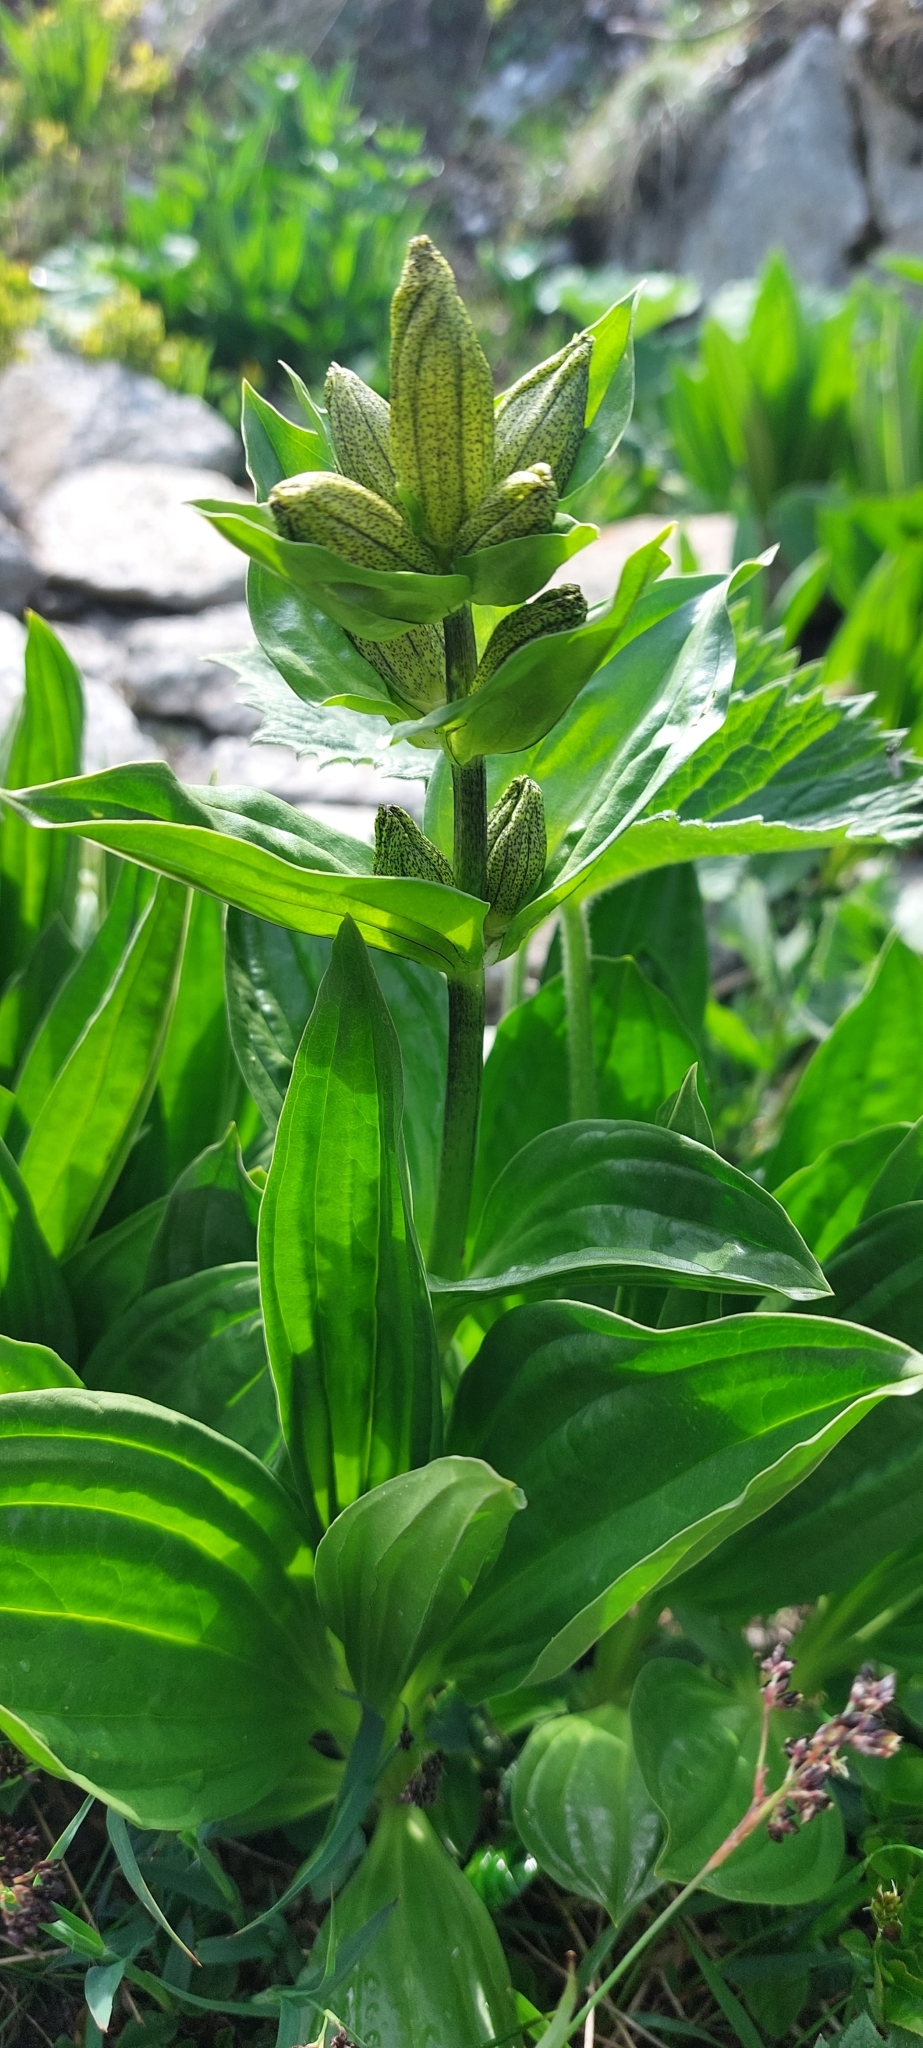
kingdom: Plantae
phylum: Tracheophyta
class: Magnoliopsida
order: Gentianales
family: Gentianaceae
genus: Gentiana
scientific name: Gentiana punctata
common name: Spotted gentian
